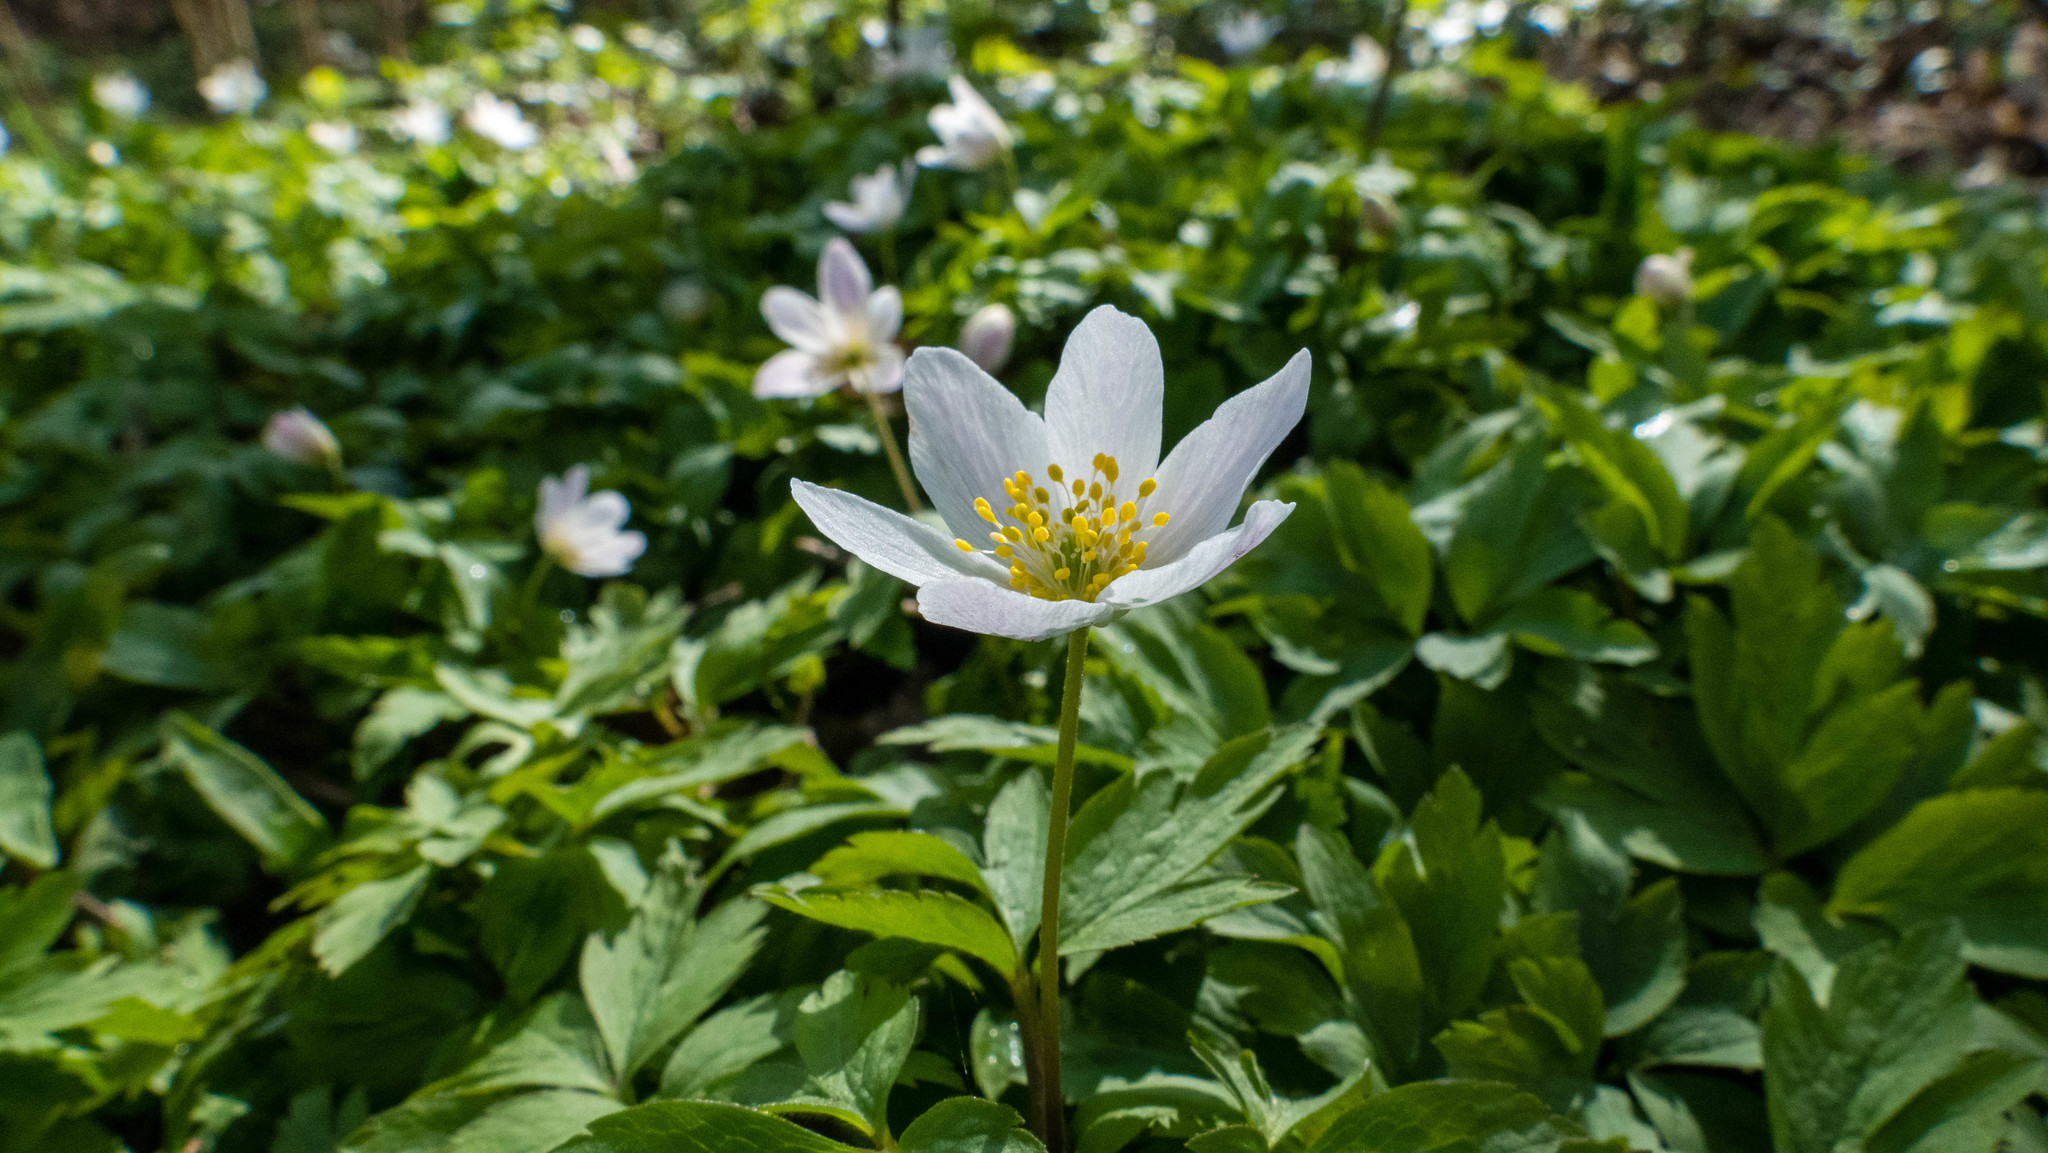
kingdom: Plantae
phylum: Tracheophyta
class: Magnoliopsida
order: Ranunculales
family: Ranunculaceae
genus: Anemone
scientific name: Anemone nemorosa
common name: Wood anemone
